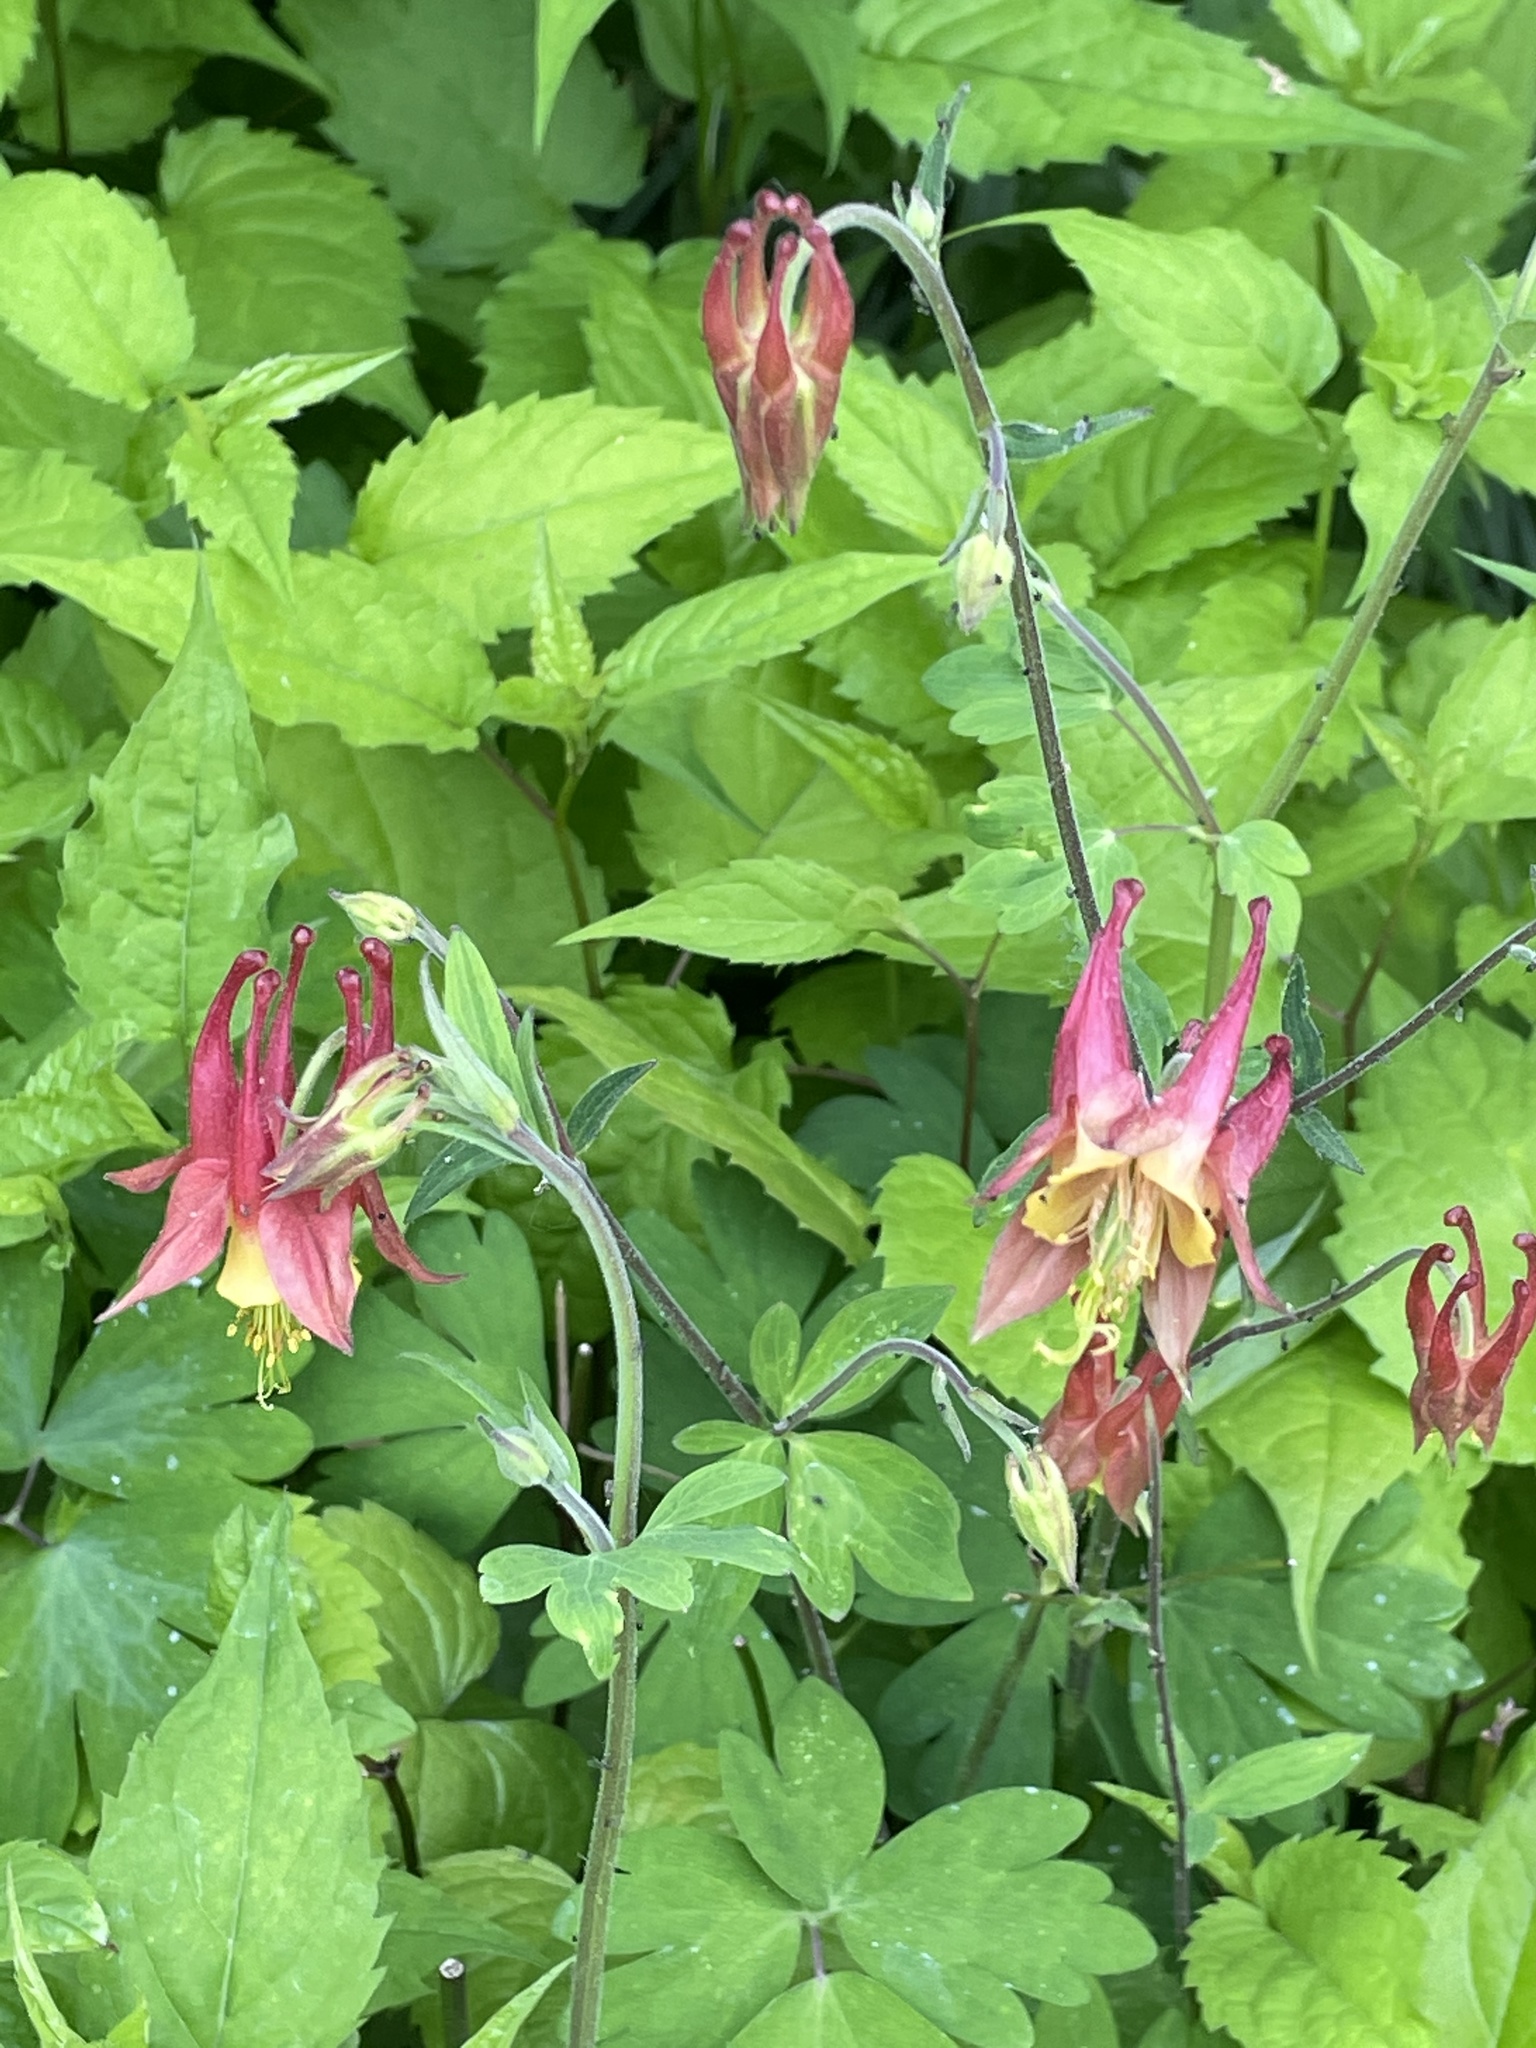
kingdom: Plantae
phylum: Tracheophyta
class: Magnoliopsida
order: Ranunculales
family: Ranunculaceae
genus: Aquilegia
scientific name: Aquilegia canadensis
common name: American columbine
